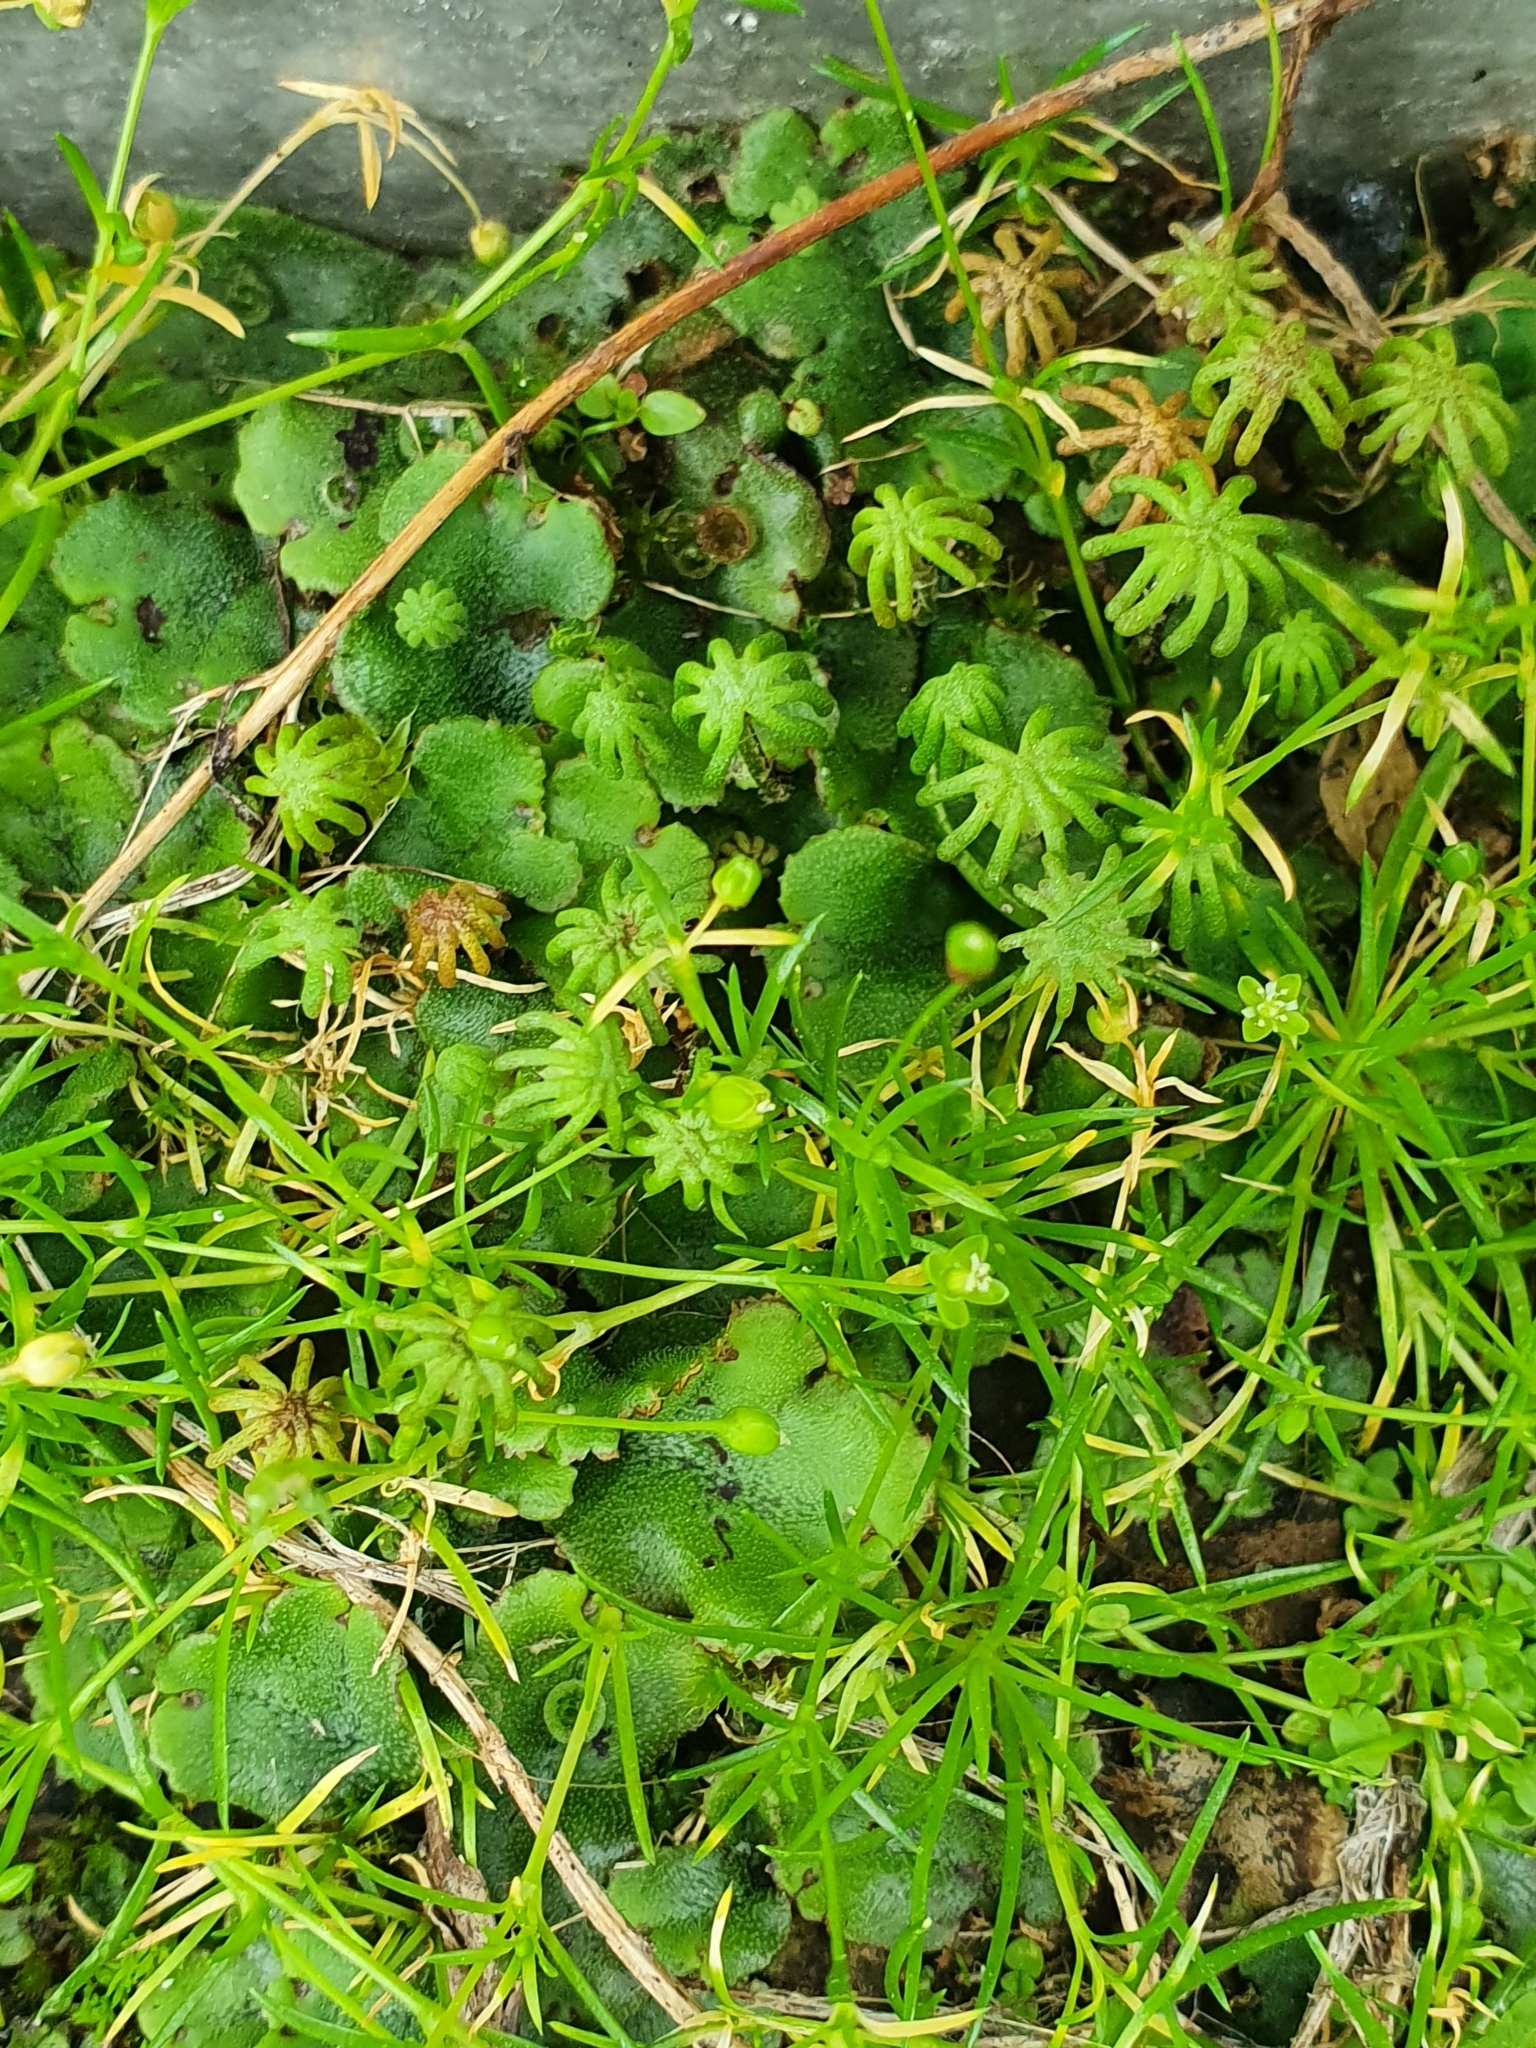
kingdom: Plantae
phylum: Marchantiophyta
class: Marchantiopsida
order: Marchantiales
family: Marchantiaceae
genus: Marchantia
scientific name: Marchantia polymorpha
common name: Common liverwort
